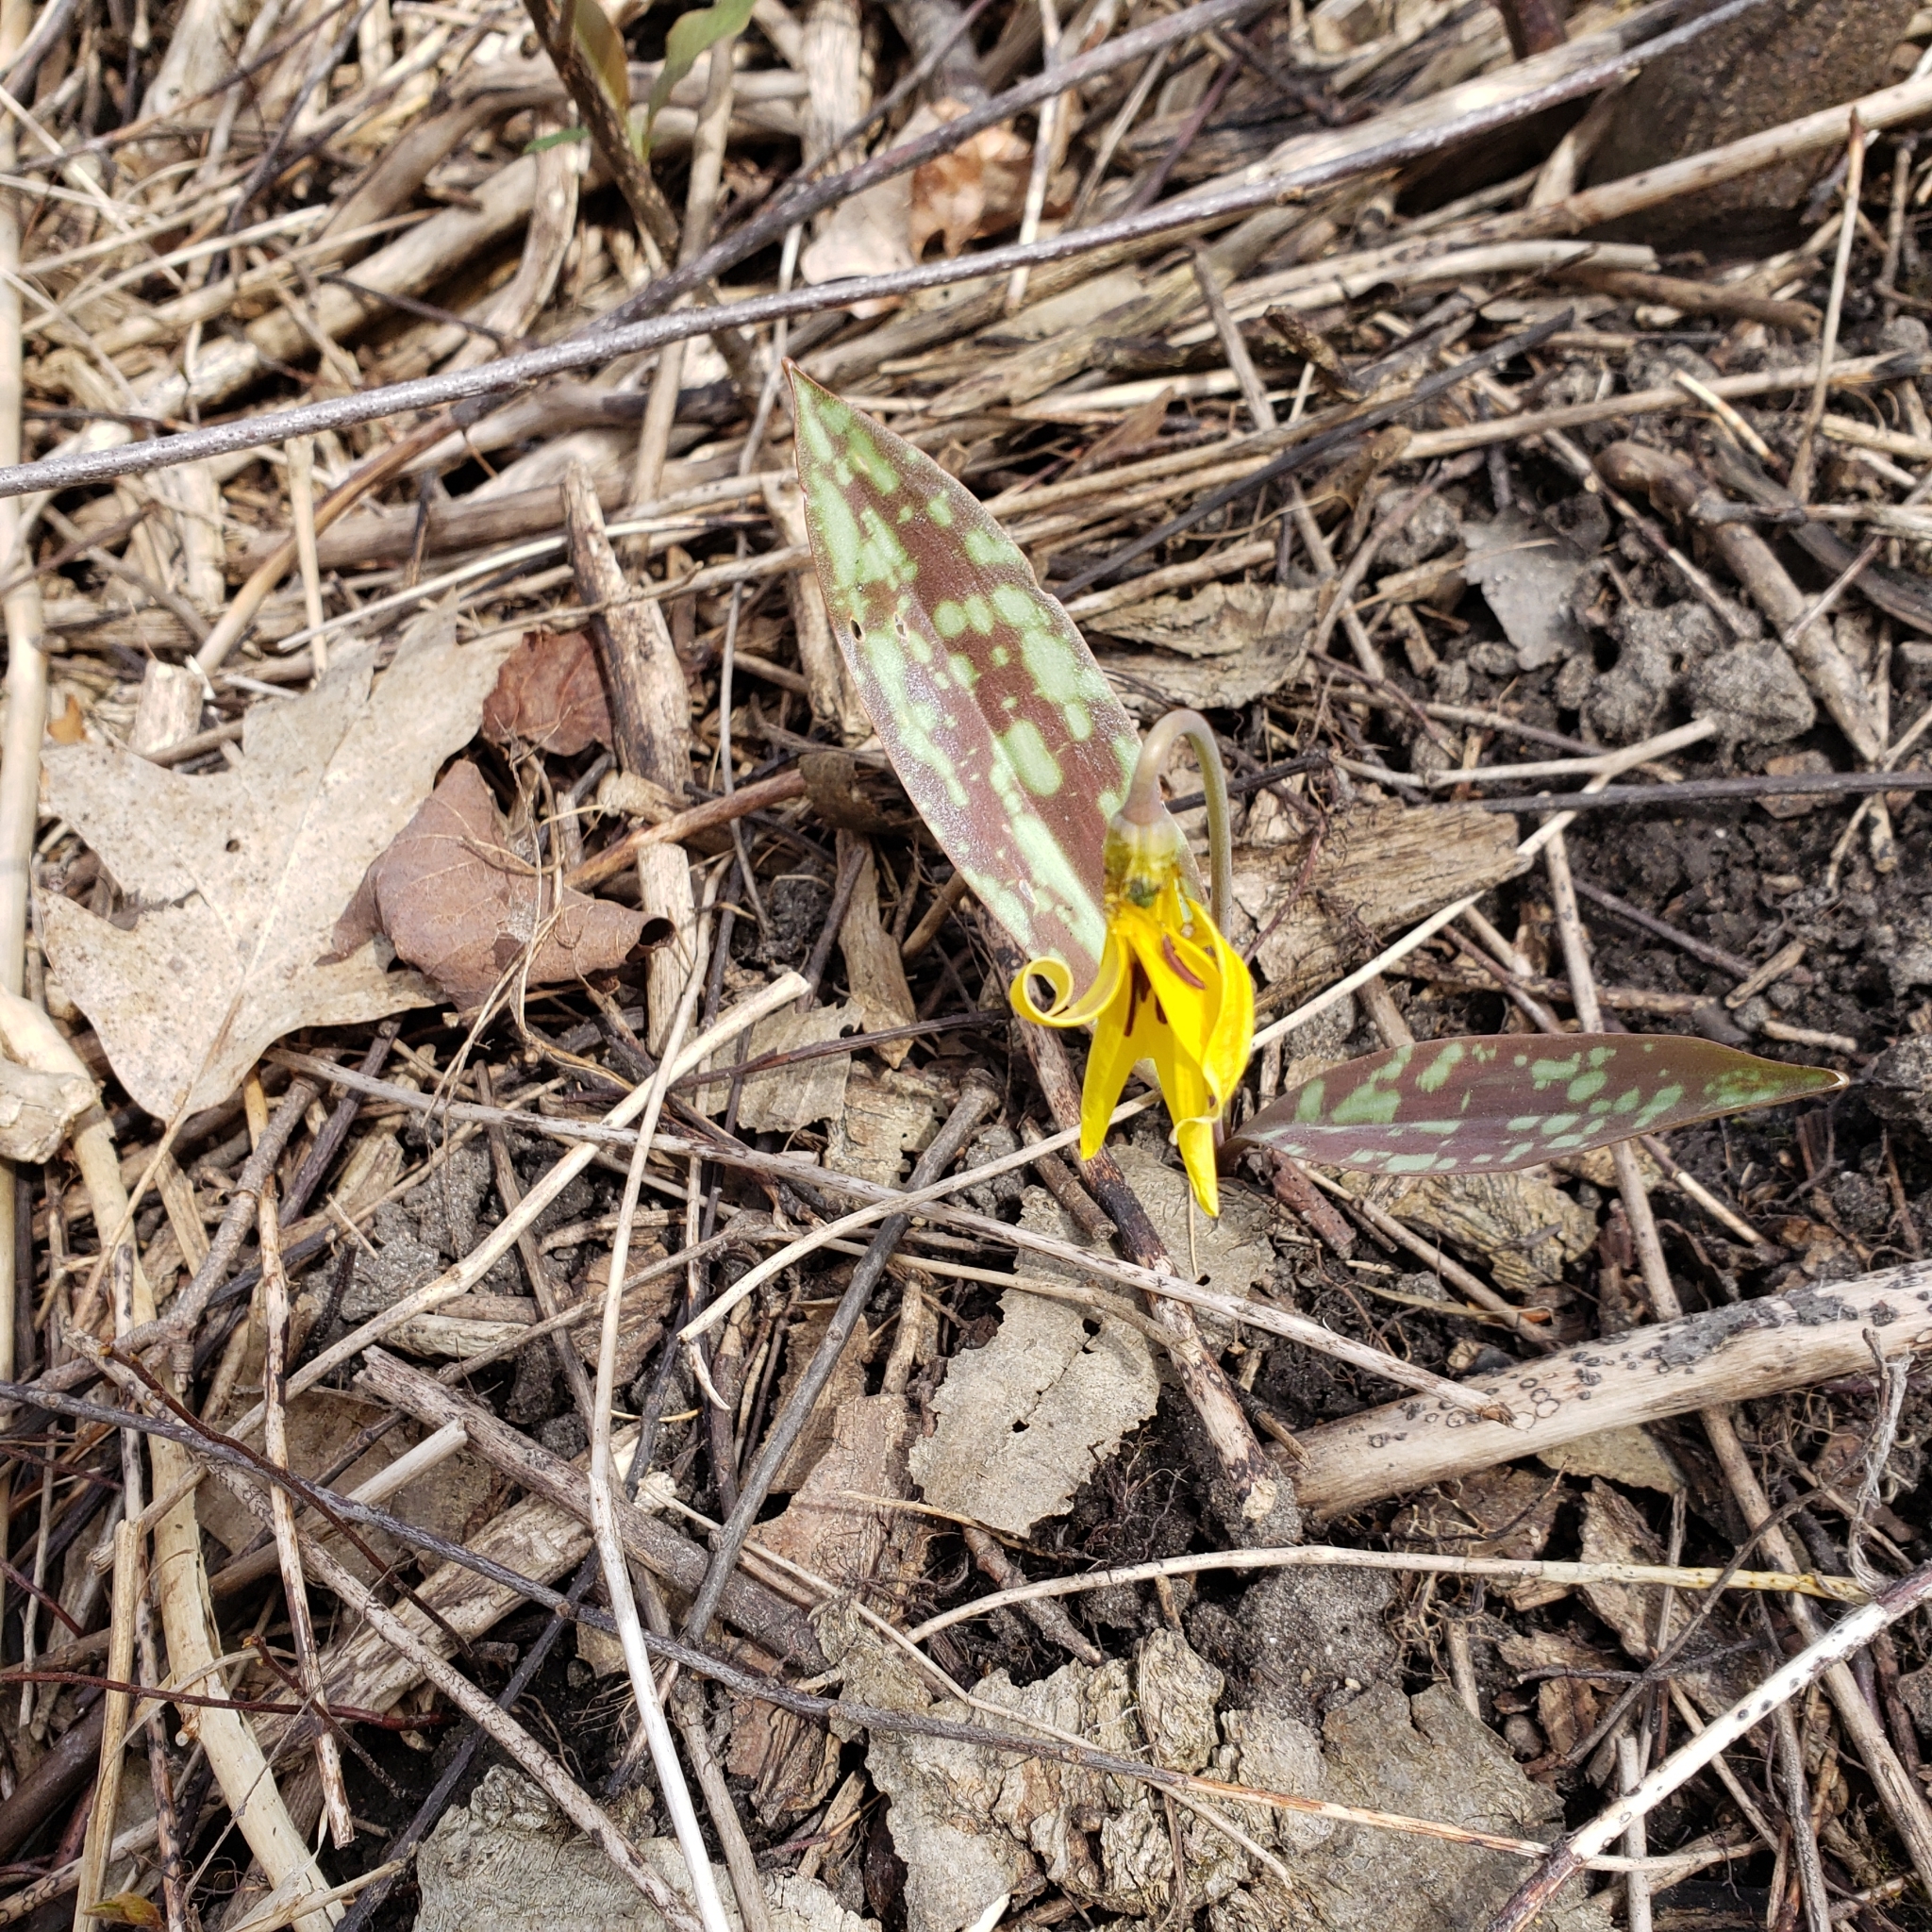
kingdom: Plantae
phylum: Tracheophyta
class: Liliopsida
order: Liliales
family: Liliaceae
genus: Erythronium
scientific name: Erythronium americanum
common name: Yellow adder's-tongue
